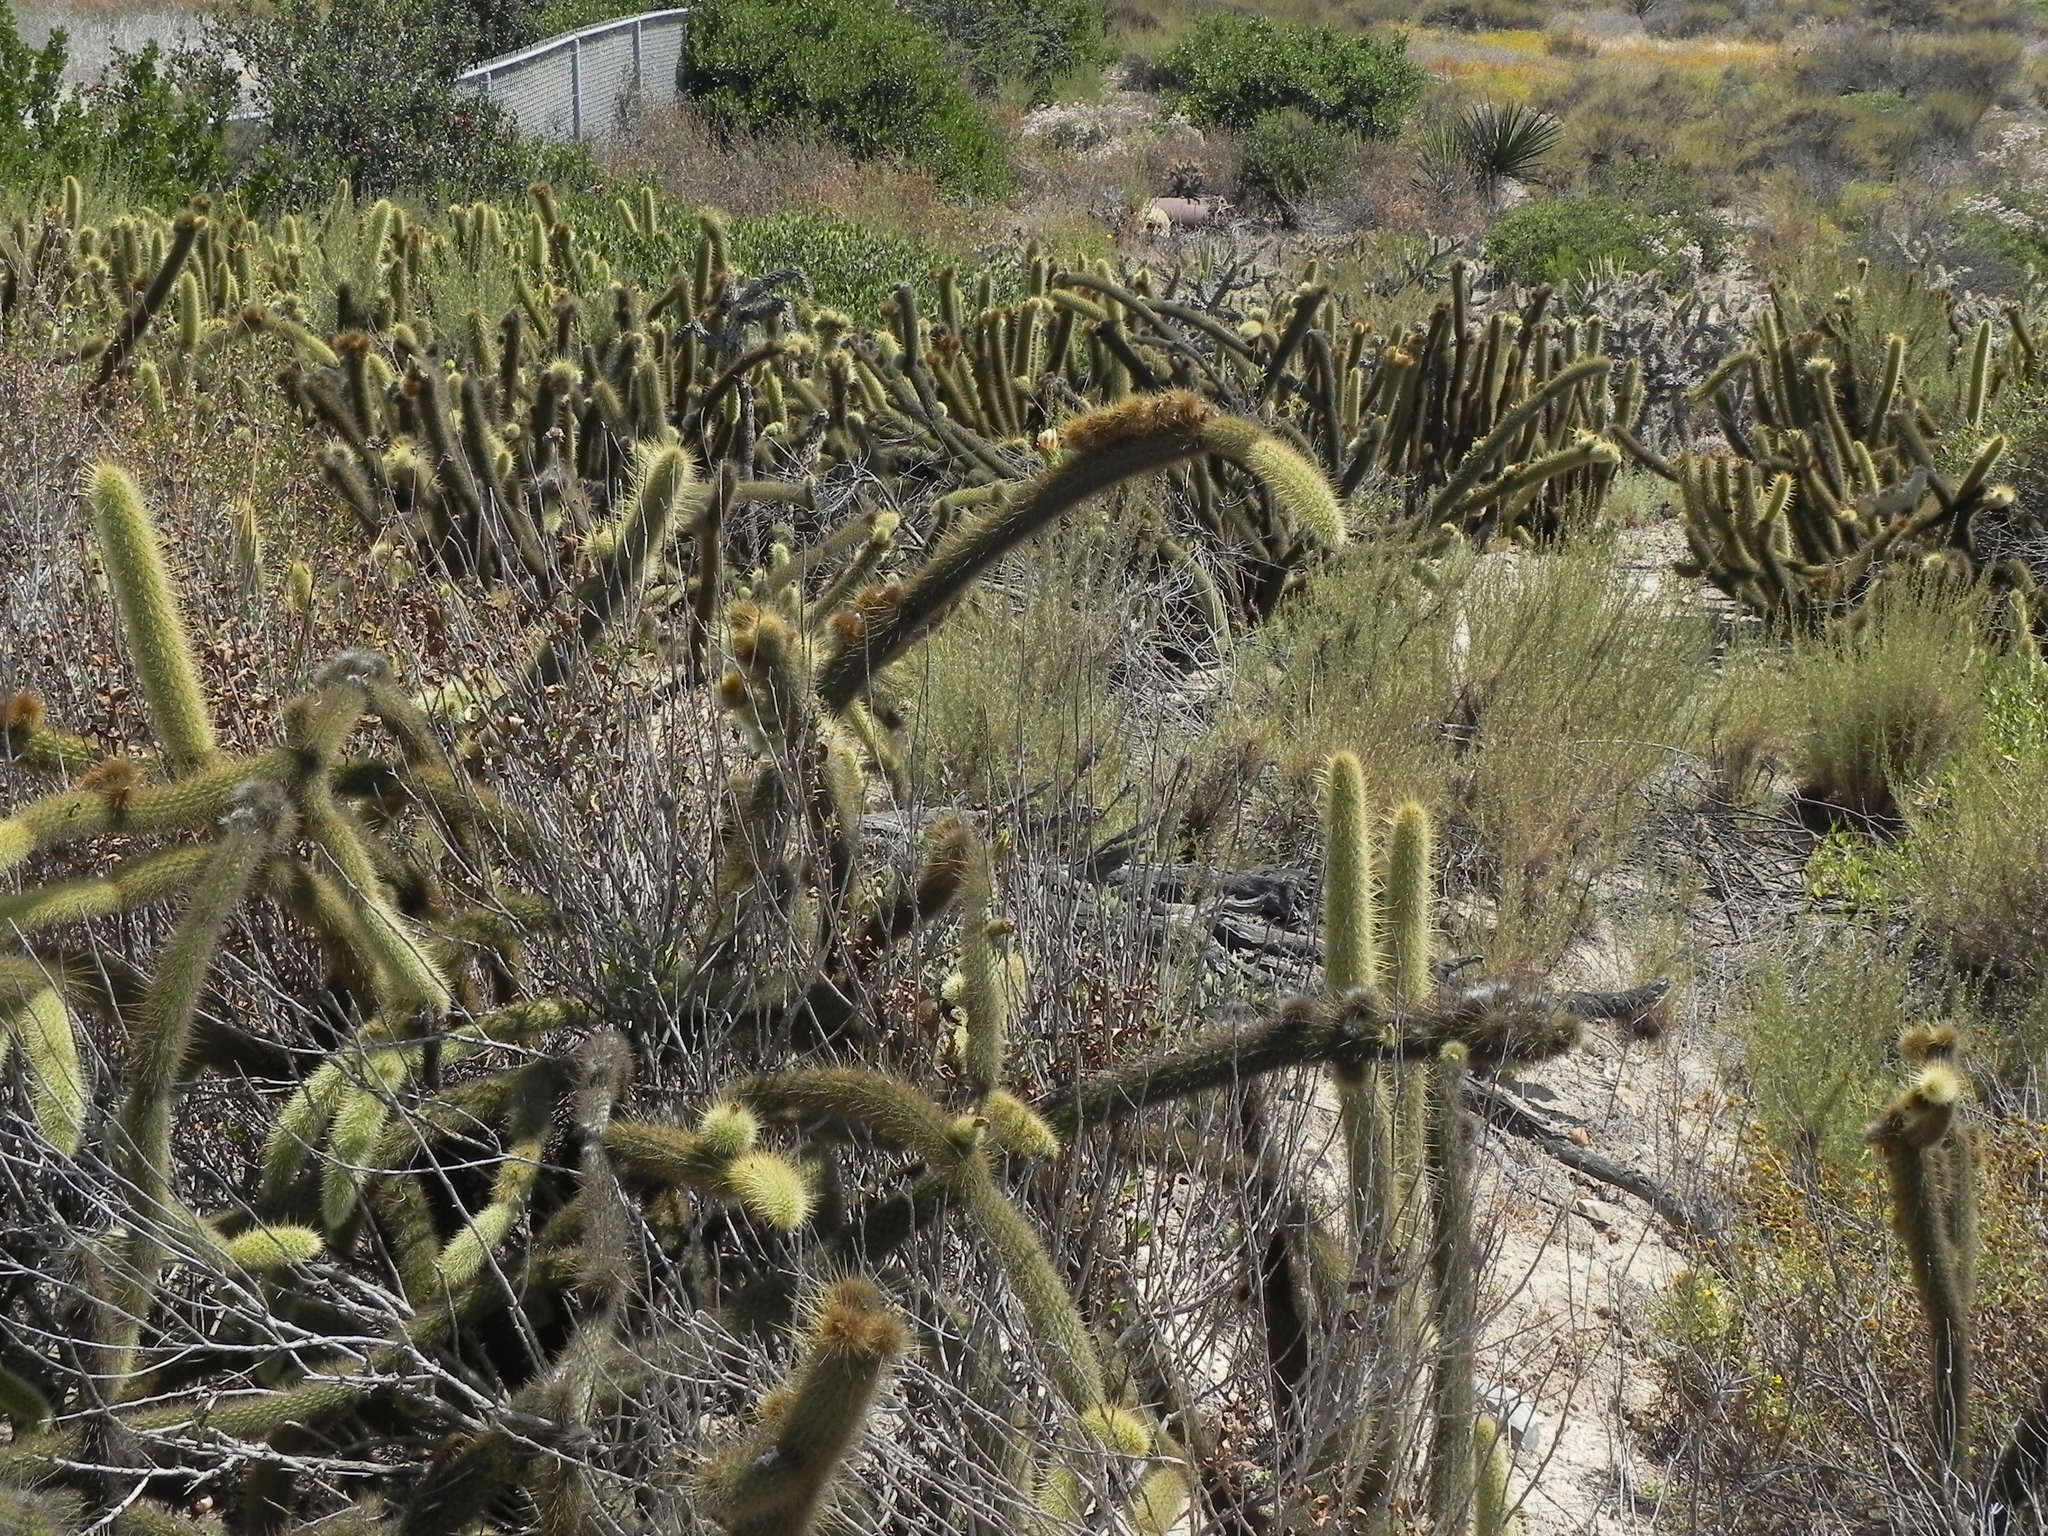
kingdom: Plantae
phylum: Tracheophyta
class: Magnoliopsida
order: Caryophyllales
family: Cactaceae
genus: Bergerocactus
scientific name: Bergerocactus emoryi
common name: Golden snakecactus
